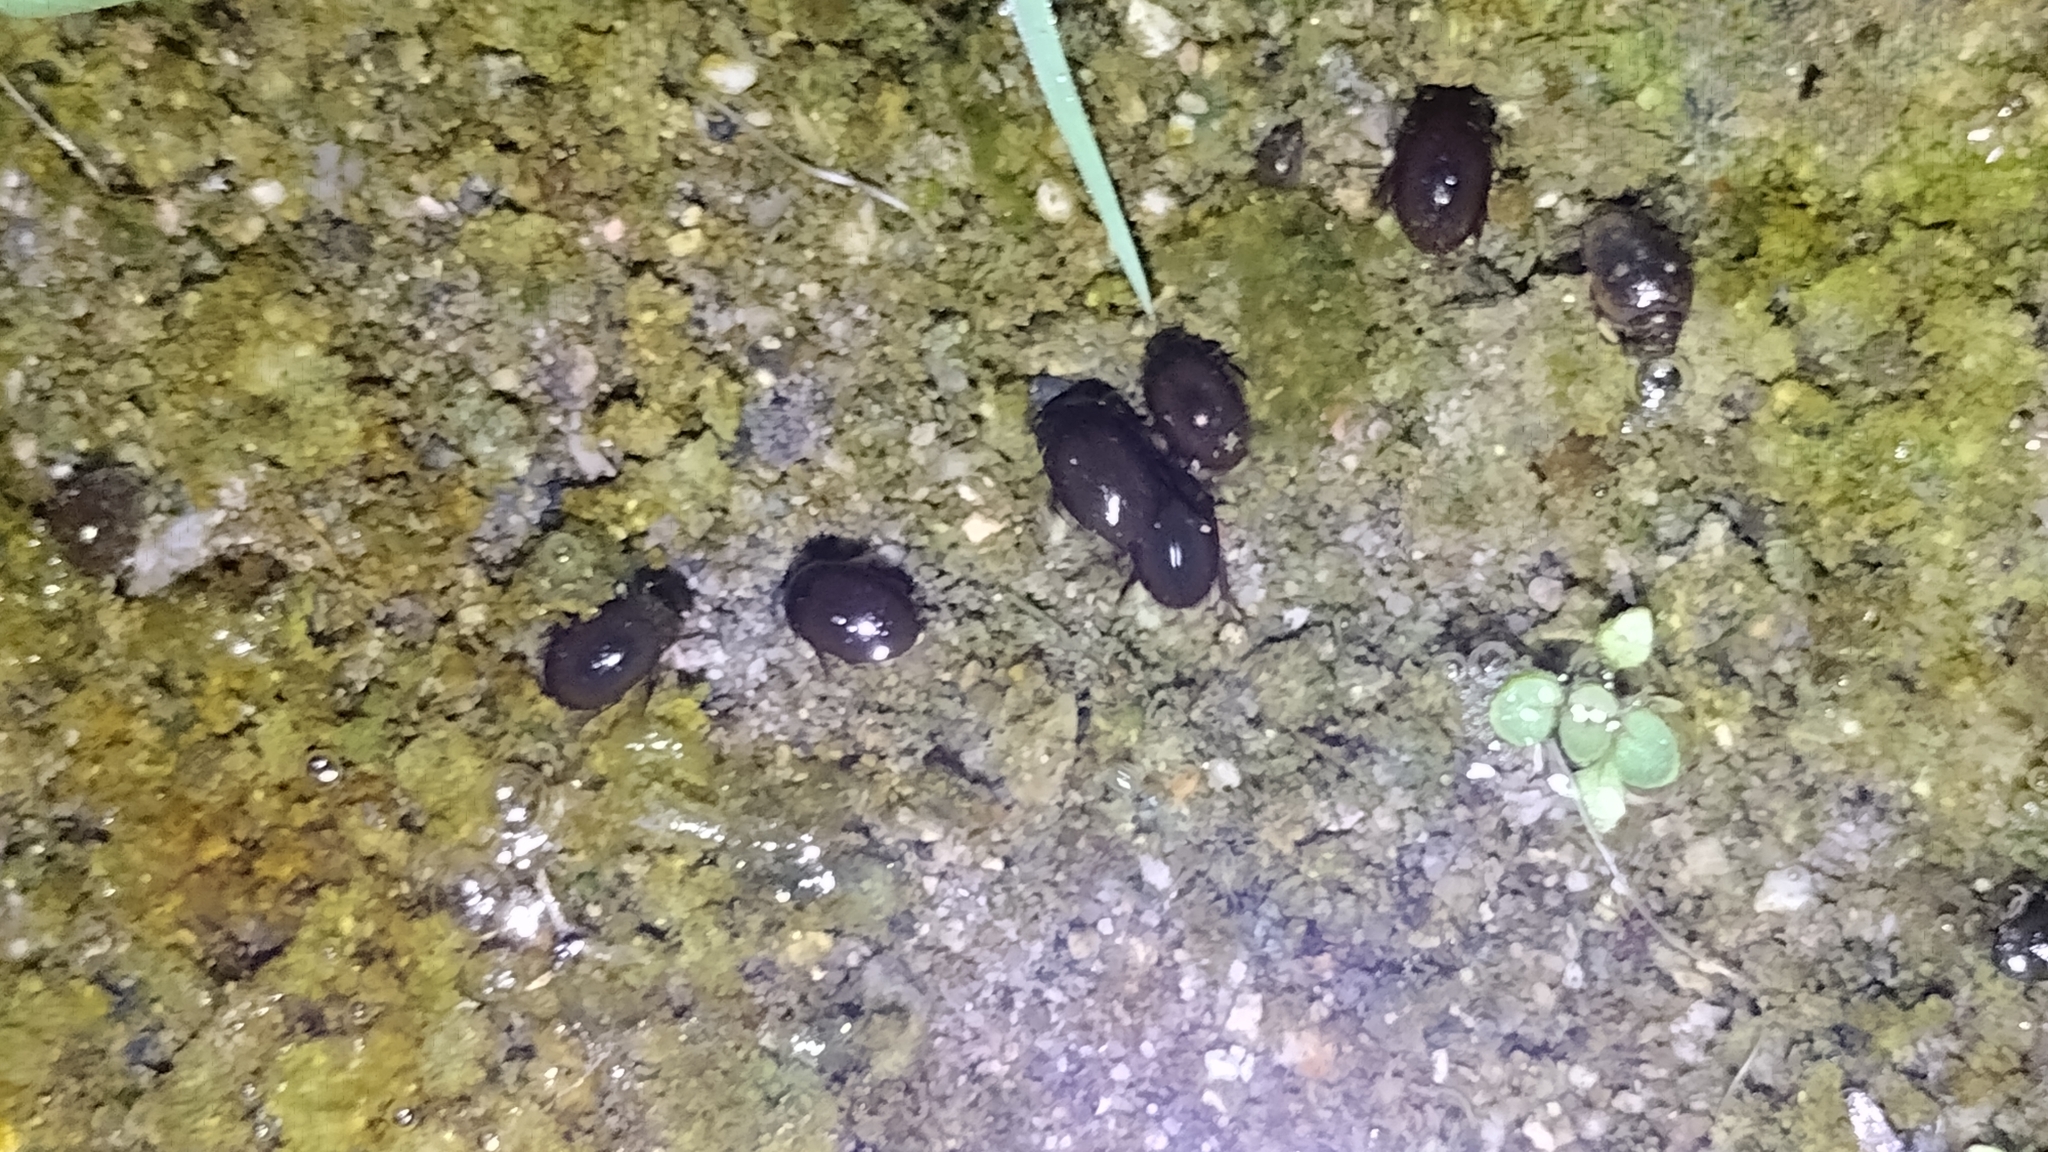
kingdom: Animalia
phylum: Arthropoda
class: Insecta
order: Coleoptera
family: Hydrophilidae
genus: Tropisternus
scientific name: Tropisternus
